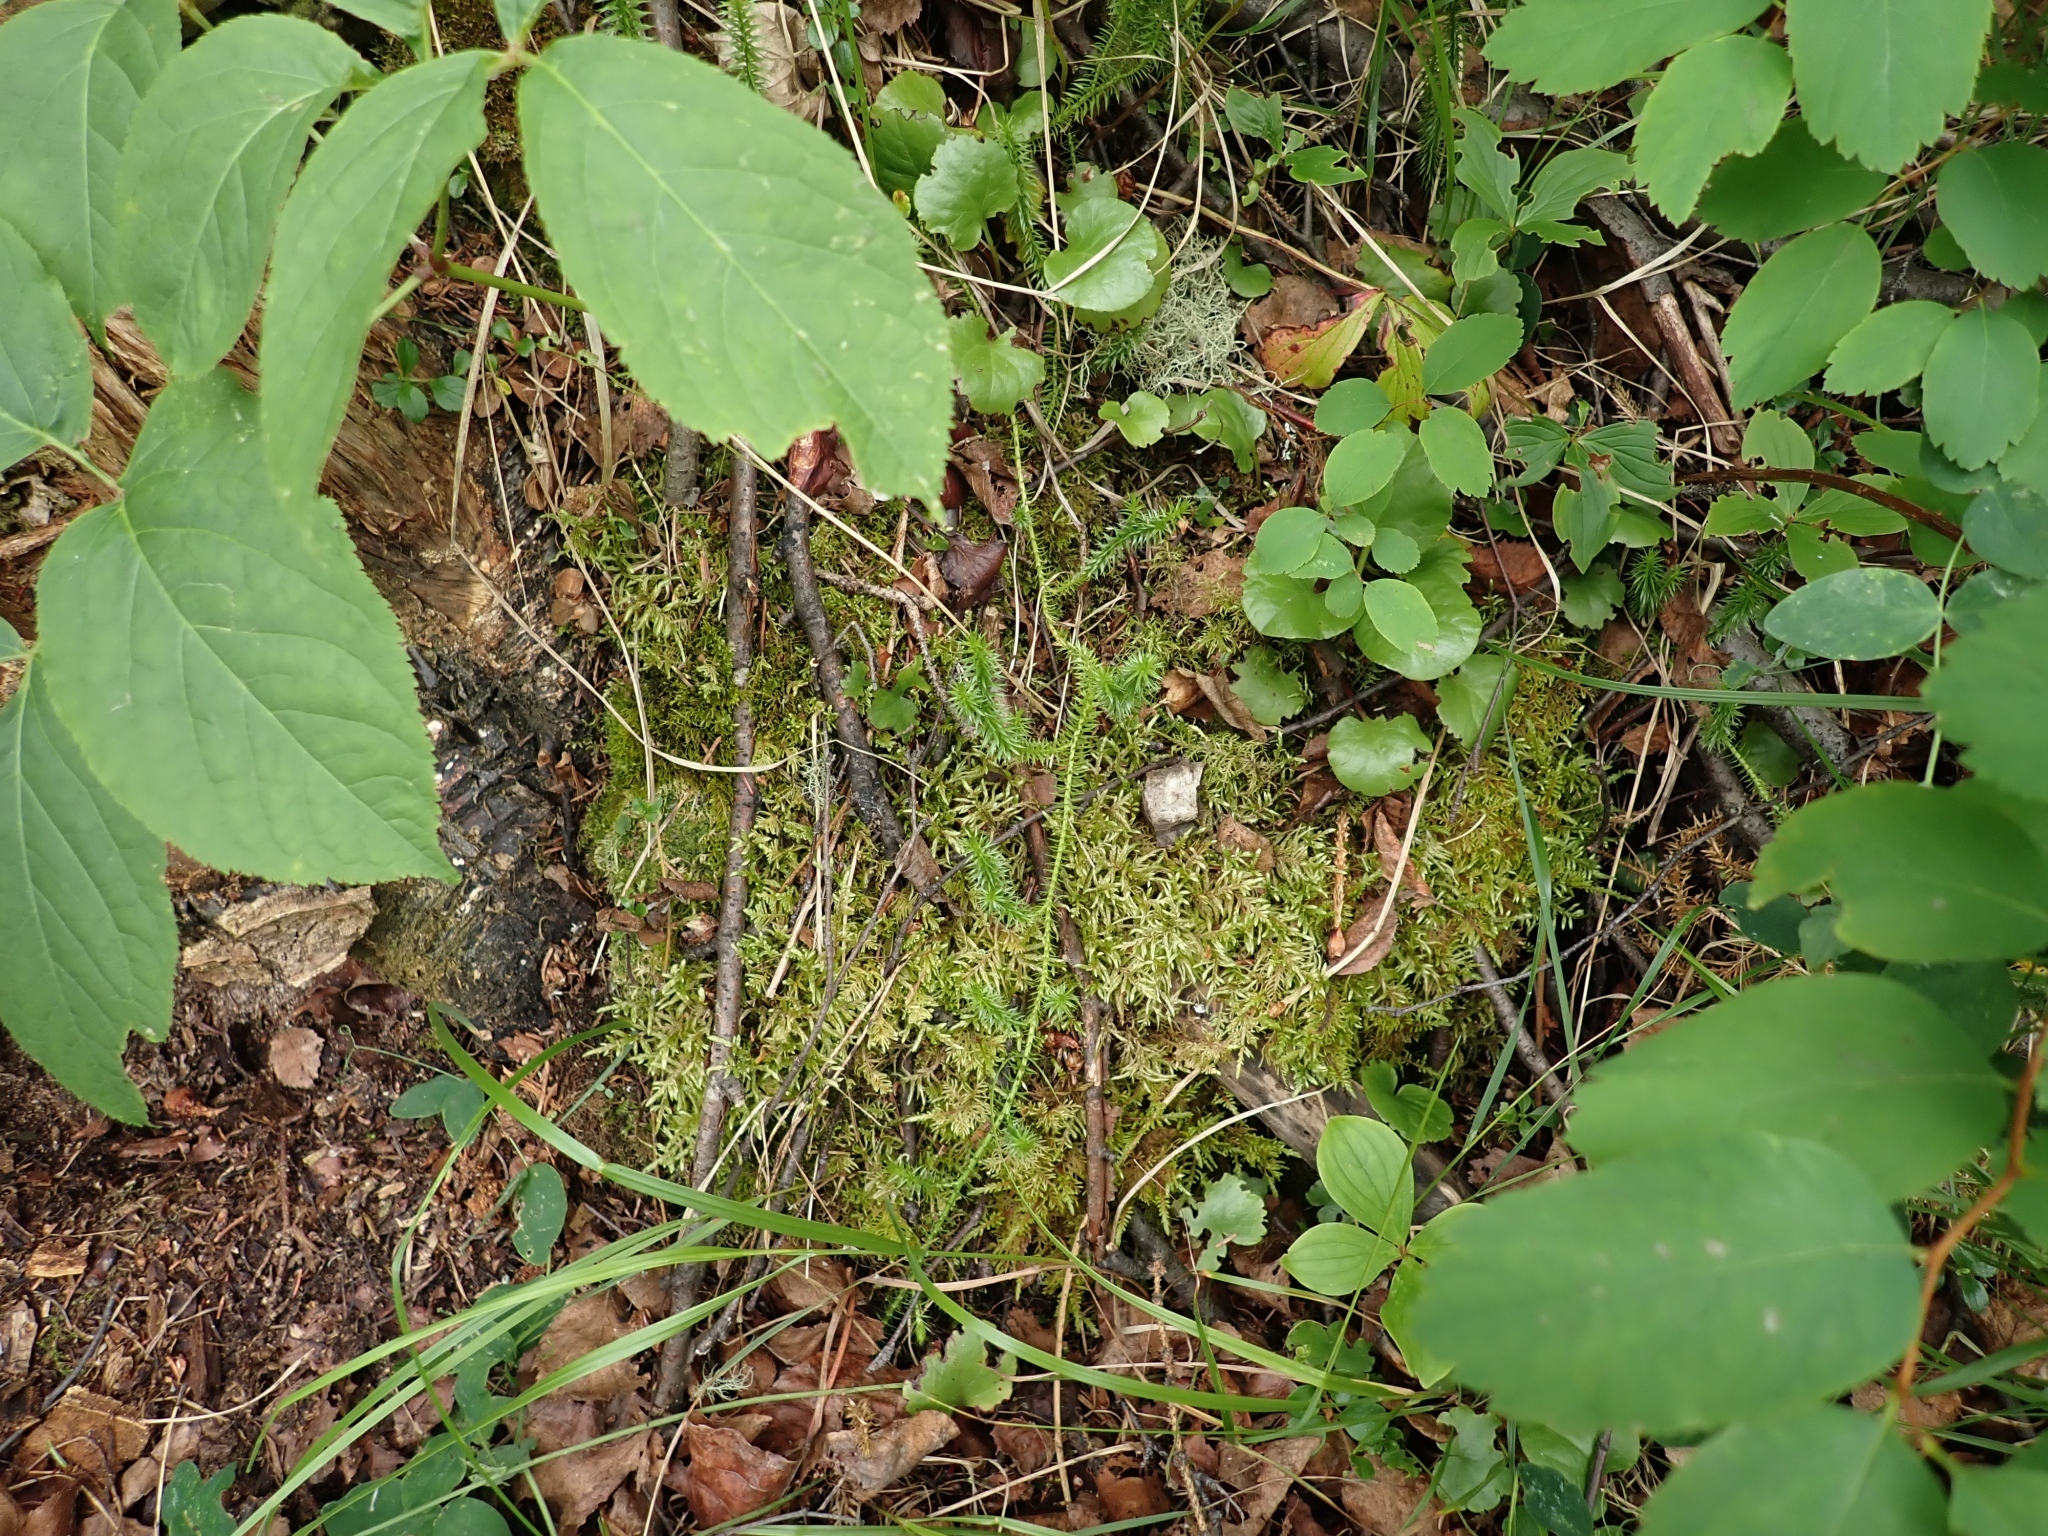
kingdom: Plantae
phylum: Tracheophyta
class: Lycopodiopsida
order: Lycopodiales
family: Lycopodiaceae
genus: Spinulum
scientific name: Spinulum annotinum
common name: Interrupted club-moss
